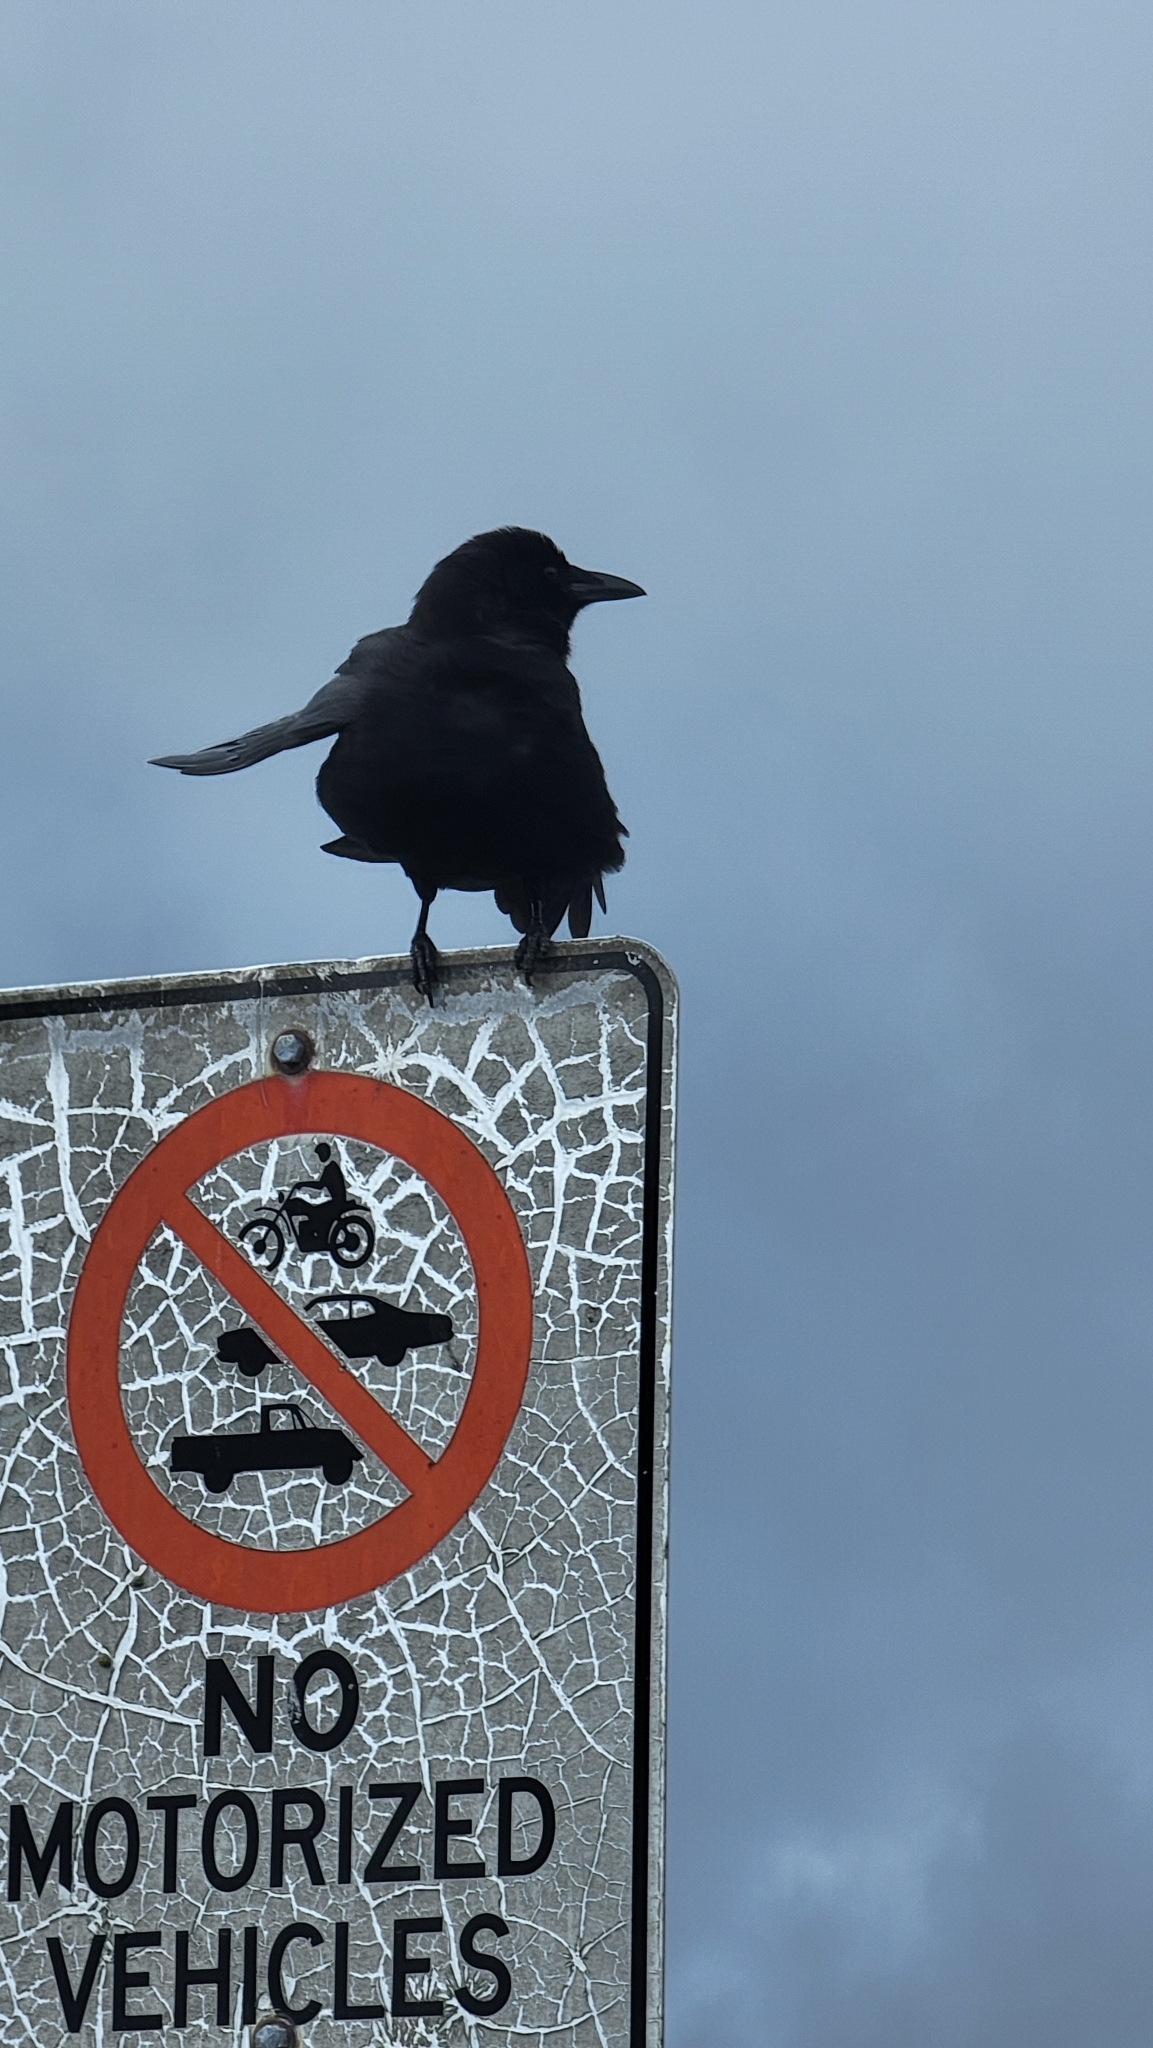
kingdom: Animalia
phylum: Chordata
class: Aves
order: Passeriformes
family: Corvidae
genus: Corvus
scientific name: Corvus brachyrhynchos
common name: American crow
